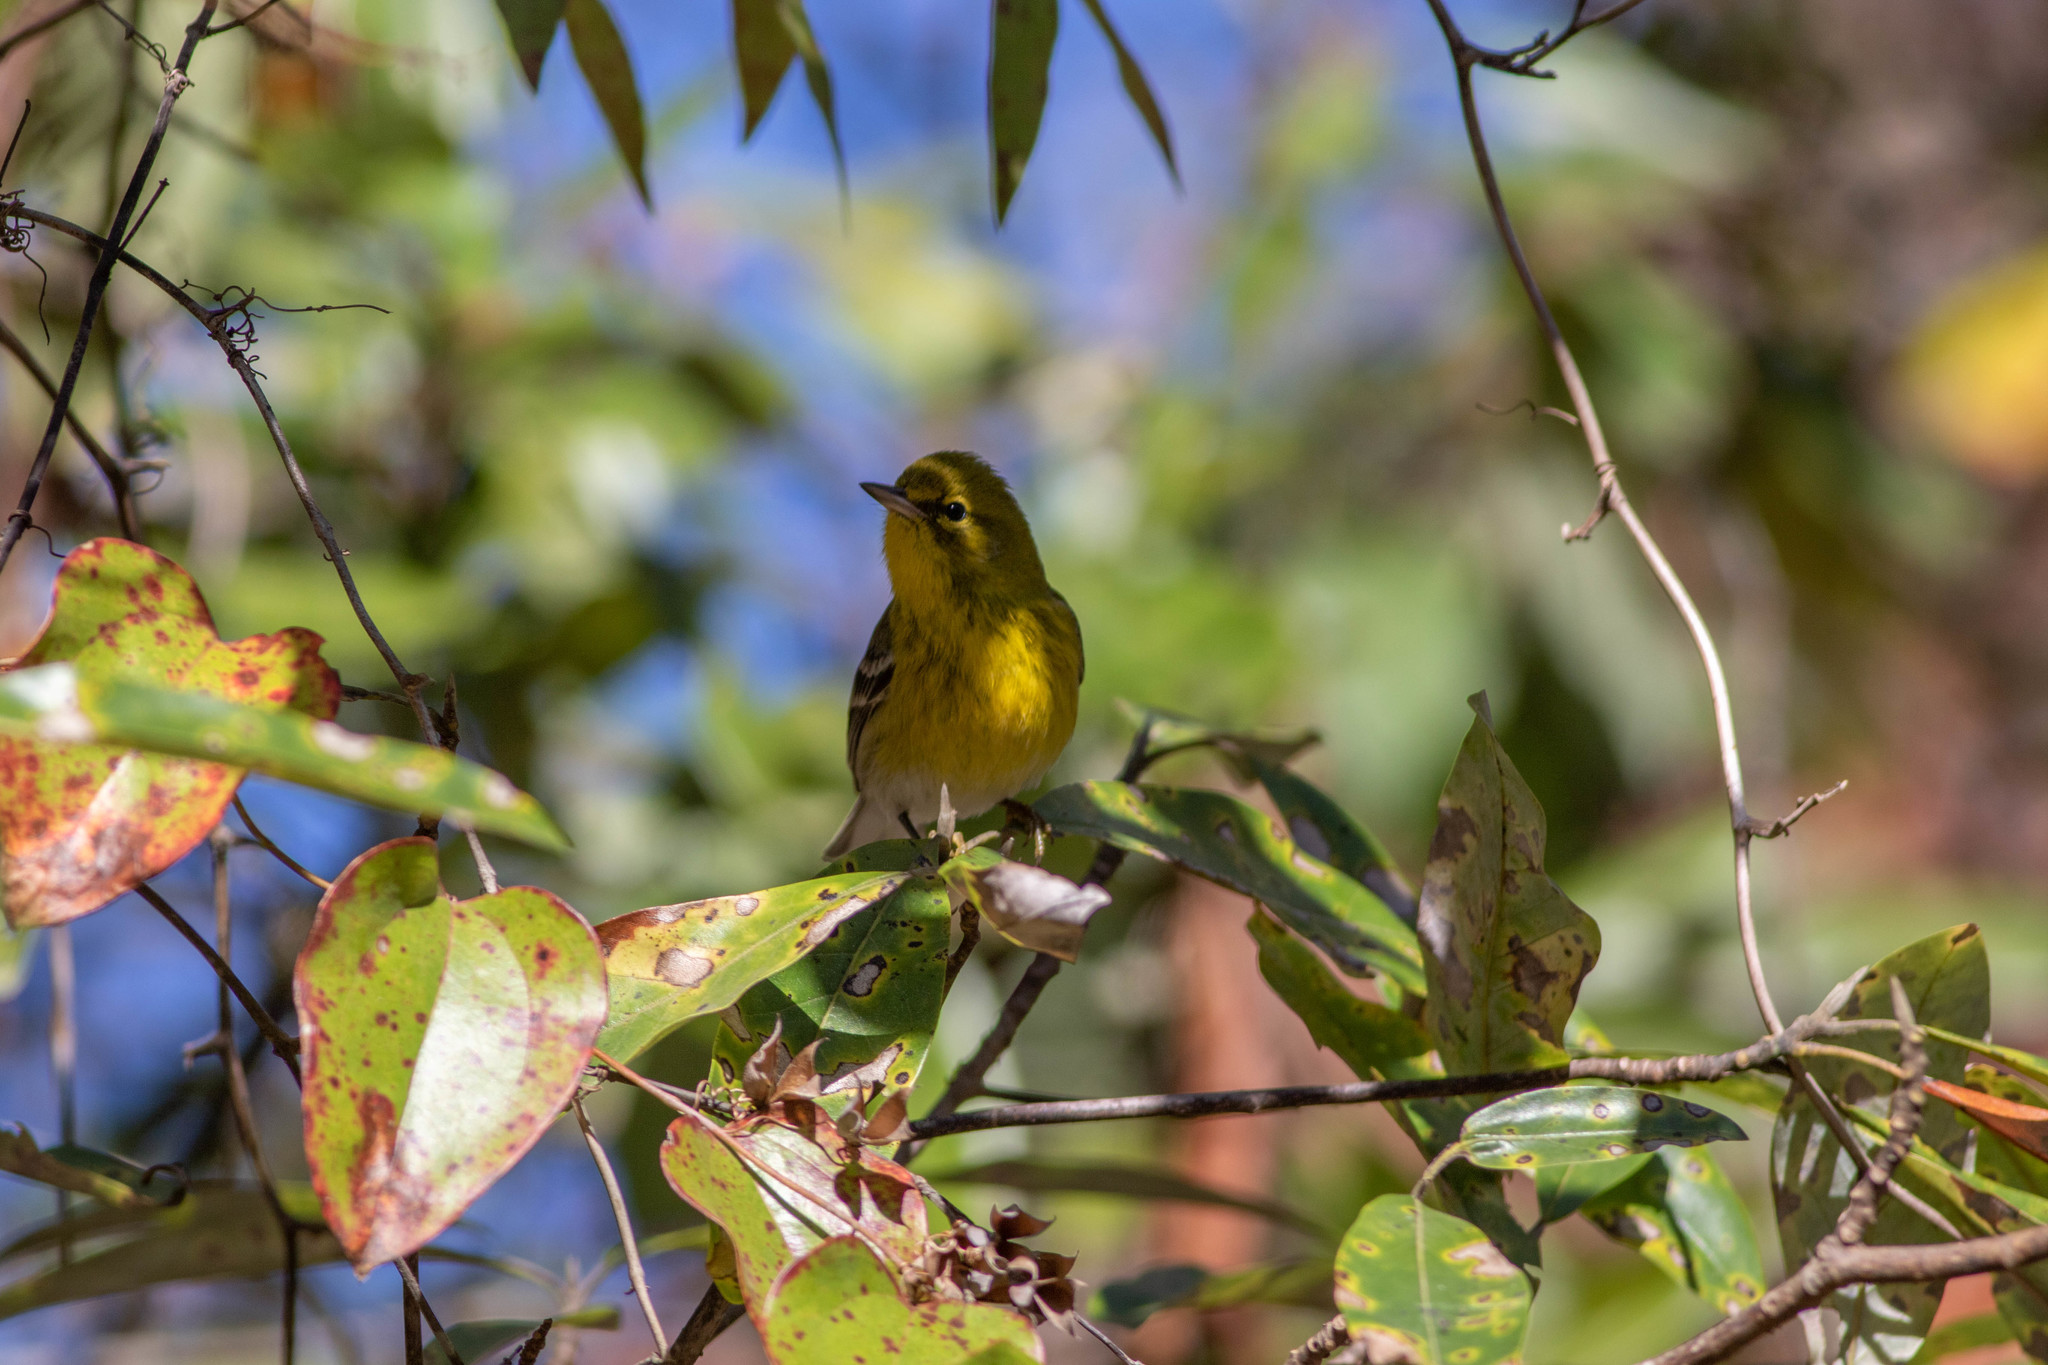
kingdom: Animalia
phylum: Chordata
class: Aves
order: Passeriformes
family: Parulidae
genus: Setophaga
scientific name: Setophaga pinus
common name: Pine warbler
